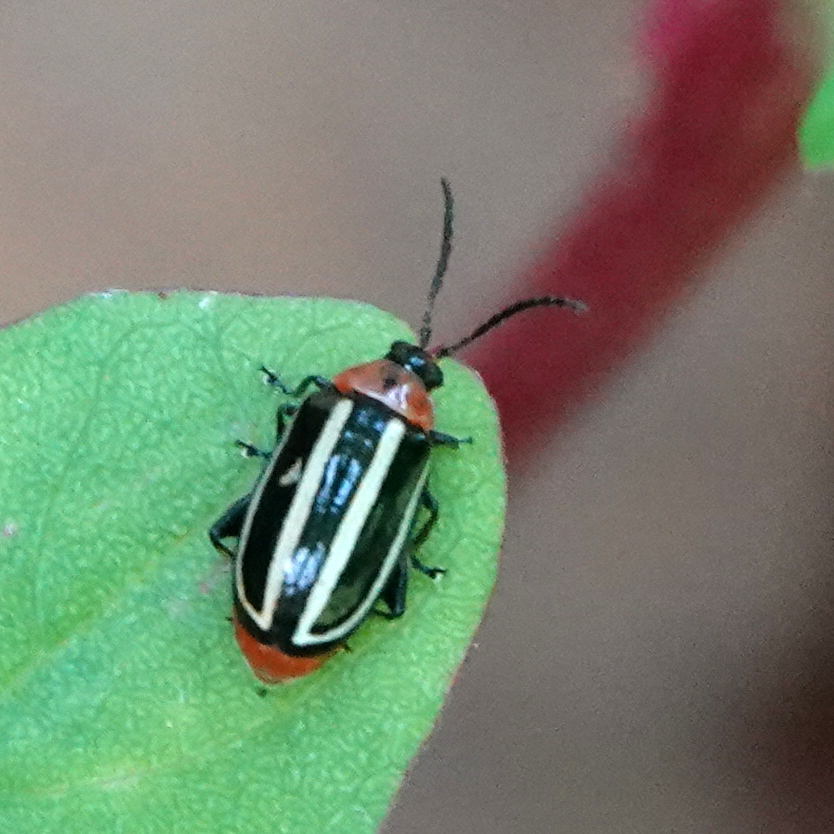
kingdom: Animalia
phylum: Arthropoda
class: Insecta
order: Coleoptera
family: Chrysomelidae
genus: Disonycha
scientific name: Disonycha glabrata
